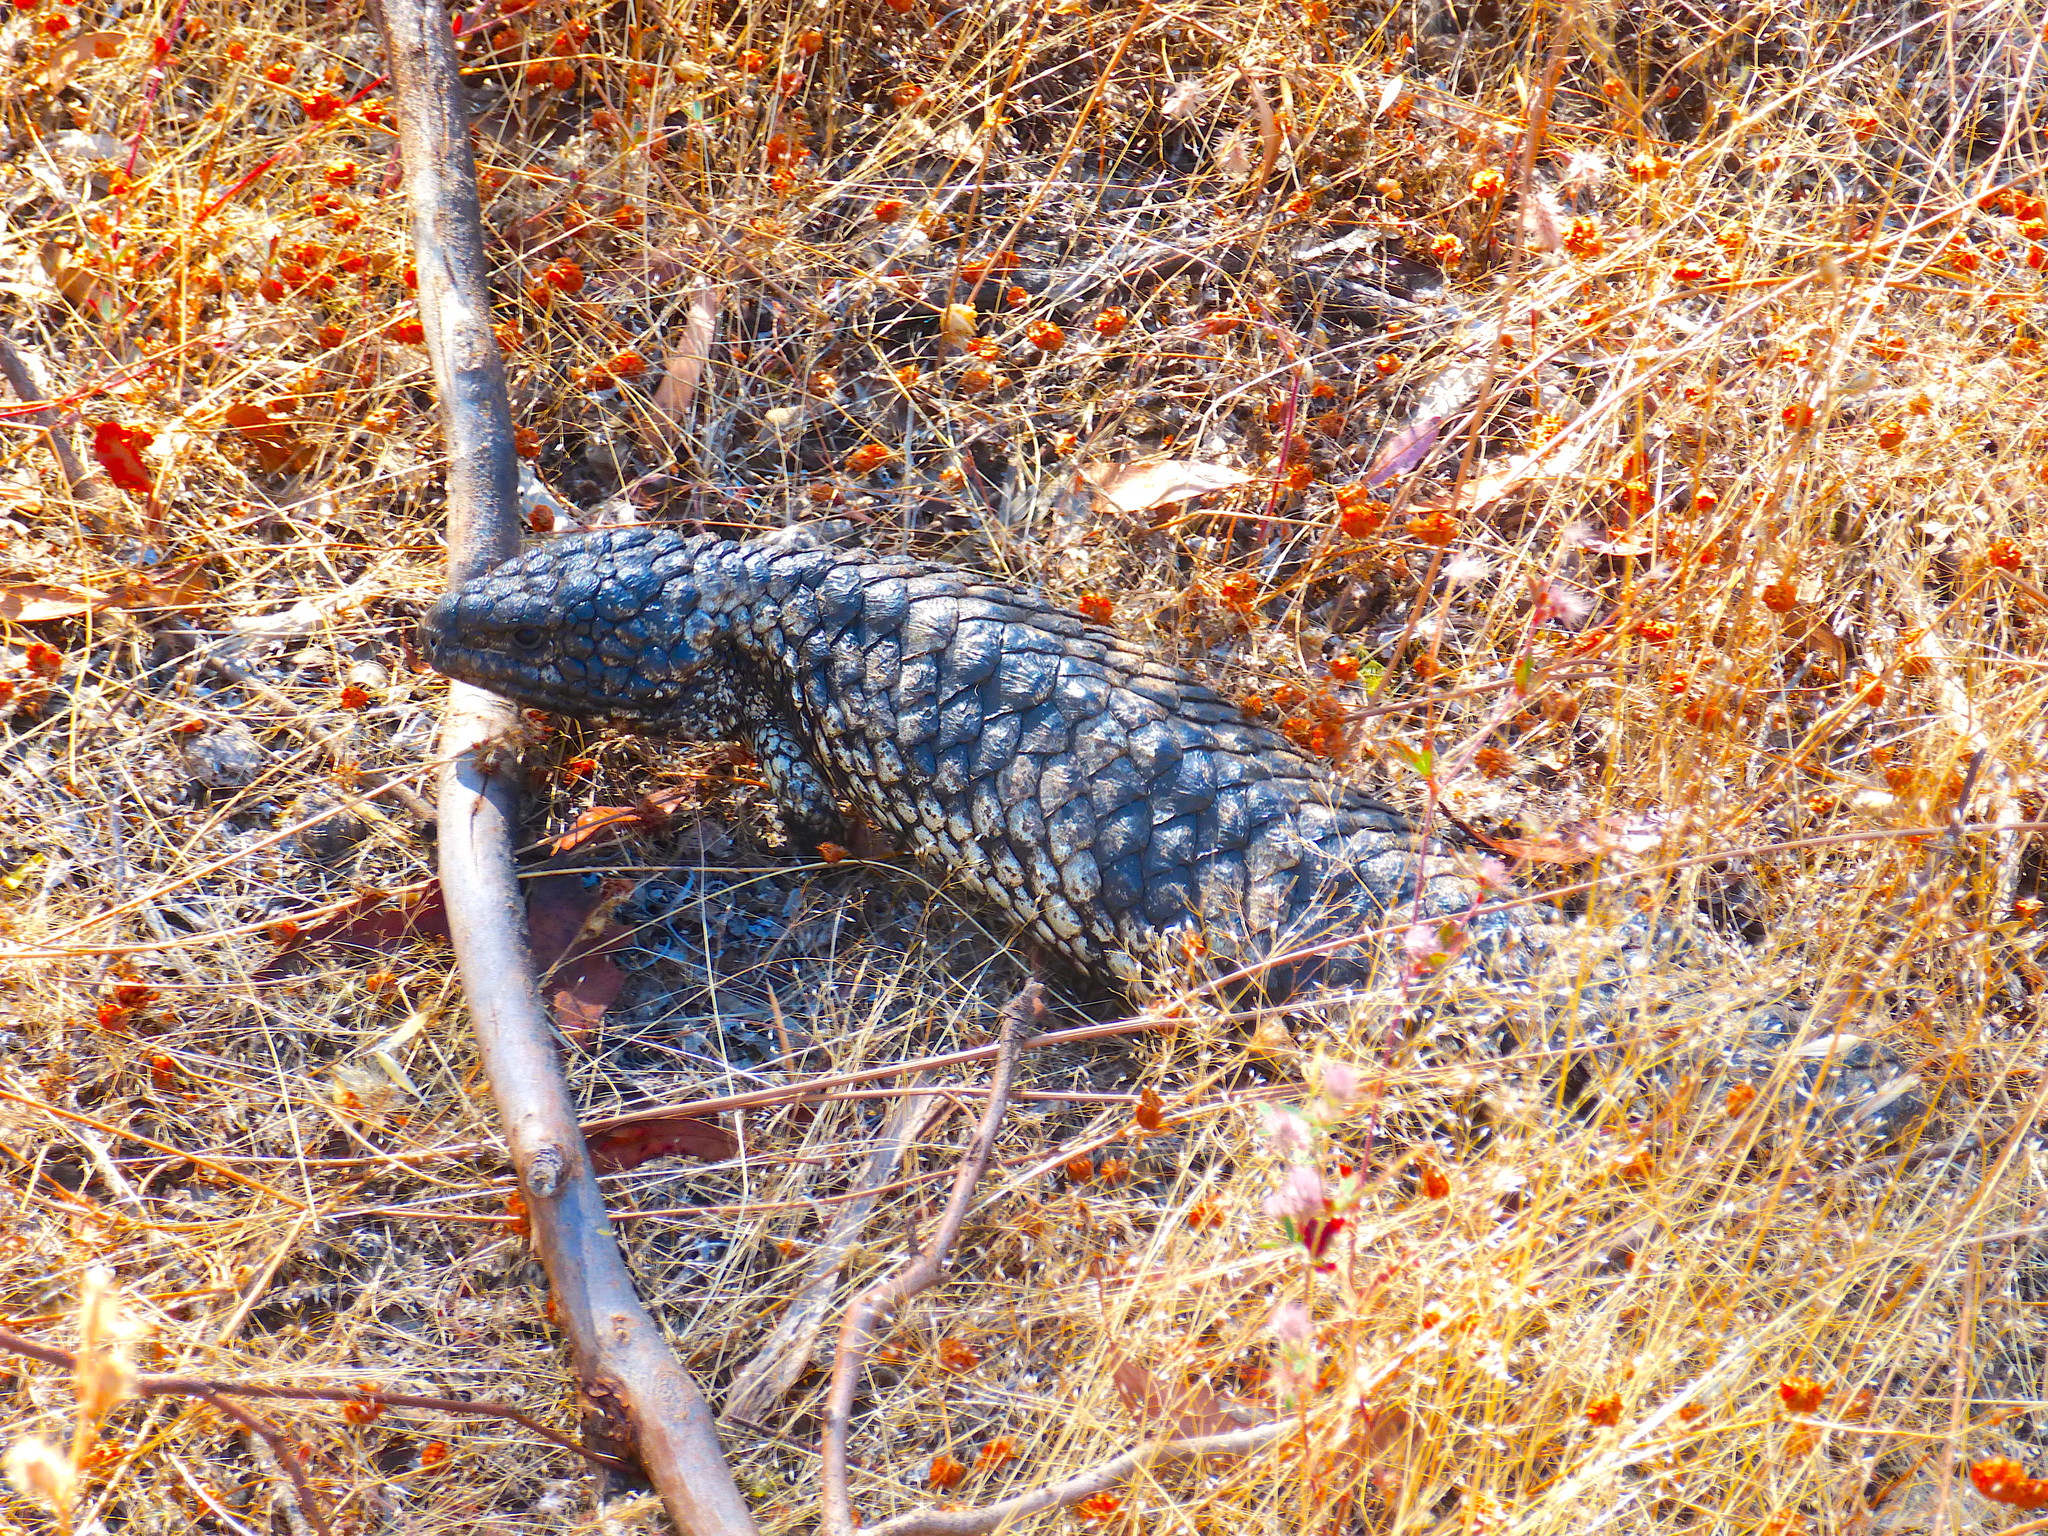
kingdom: Animalia
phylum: Chordata
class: Squamata
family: Scincidae
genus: Tiliqua
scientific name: Tiliqua rugosa
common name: Pinecone lizard
